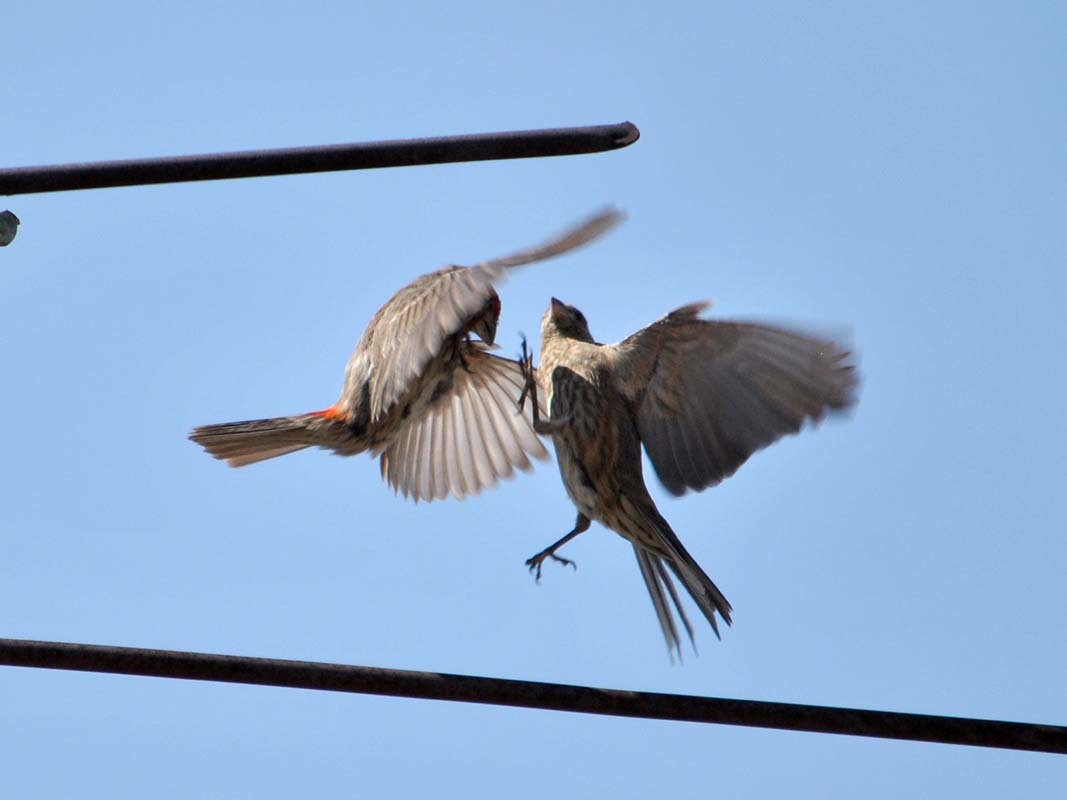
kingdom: Animalia
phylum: Chordata
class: Aves
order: Passeriformes
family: Fringillidae
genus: Haemorhous
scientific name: Haemorhous mexicanus
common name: House finch
